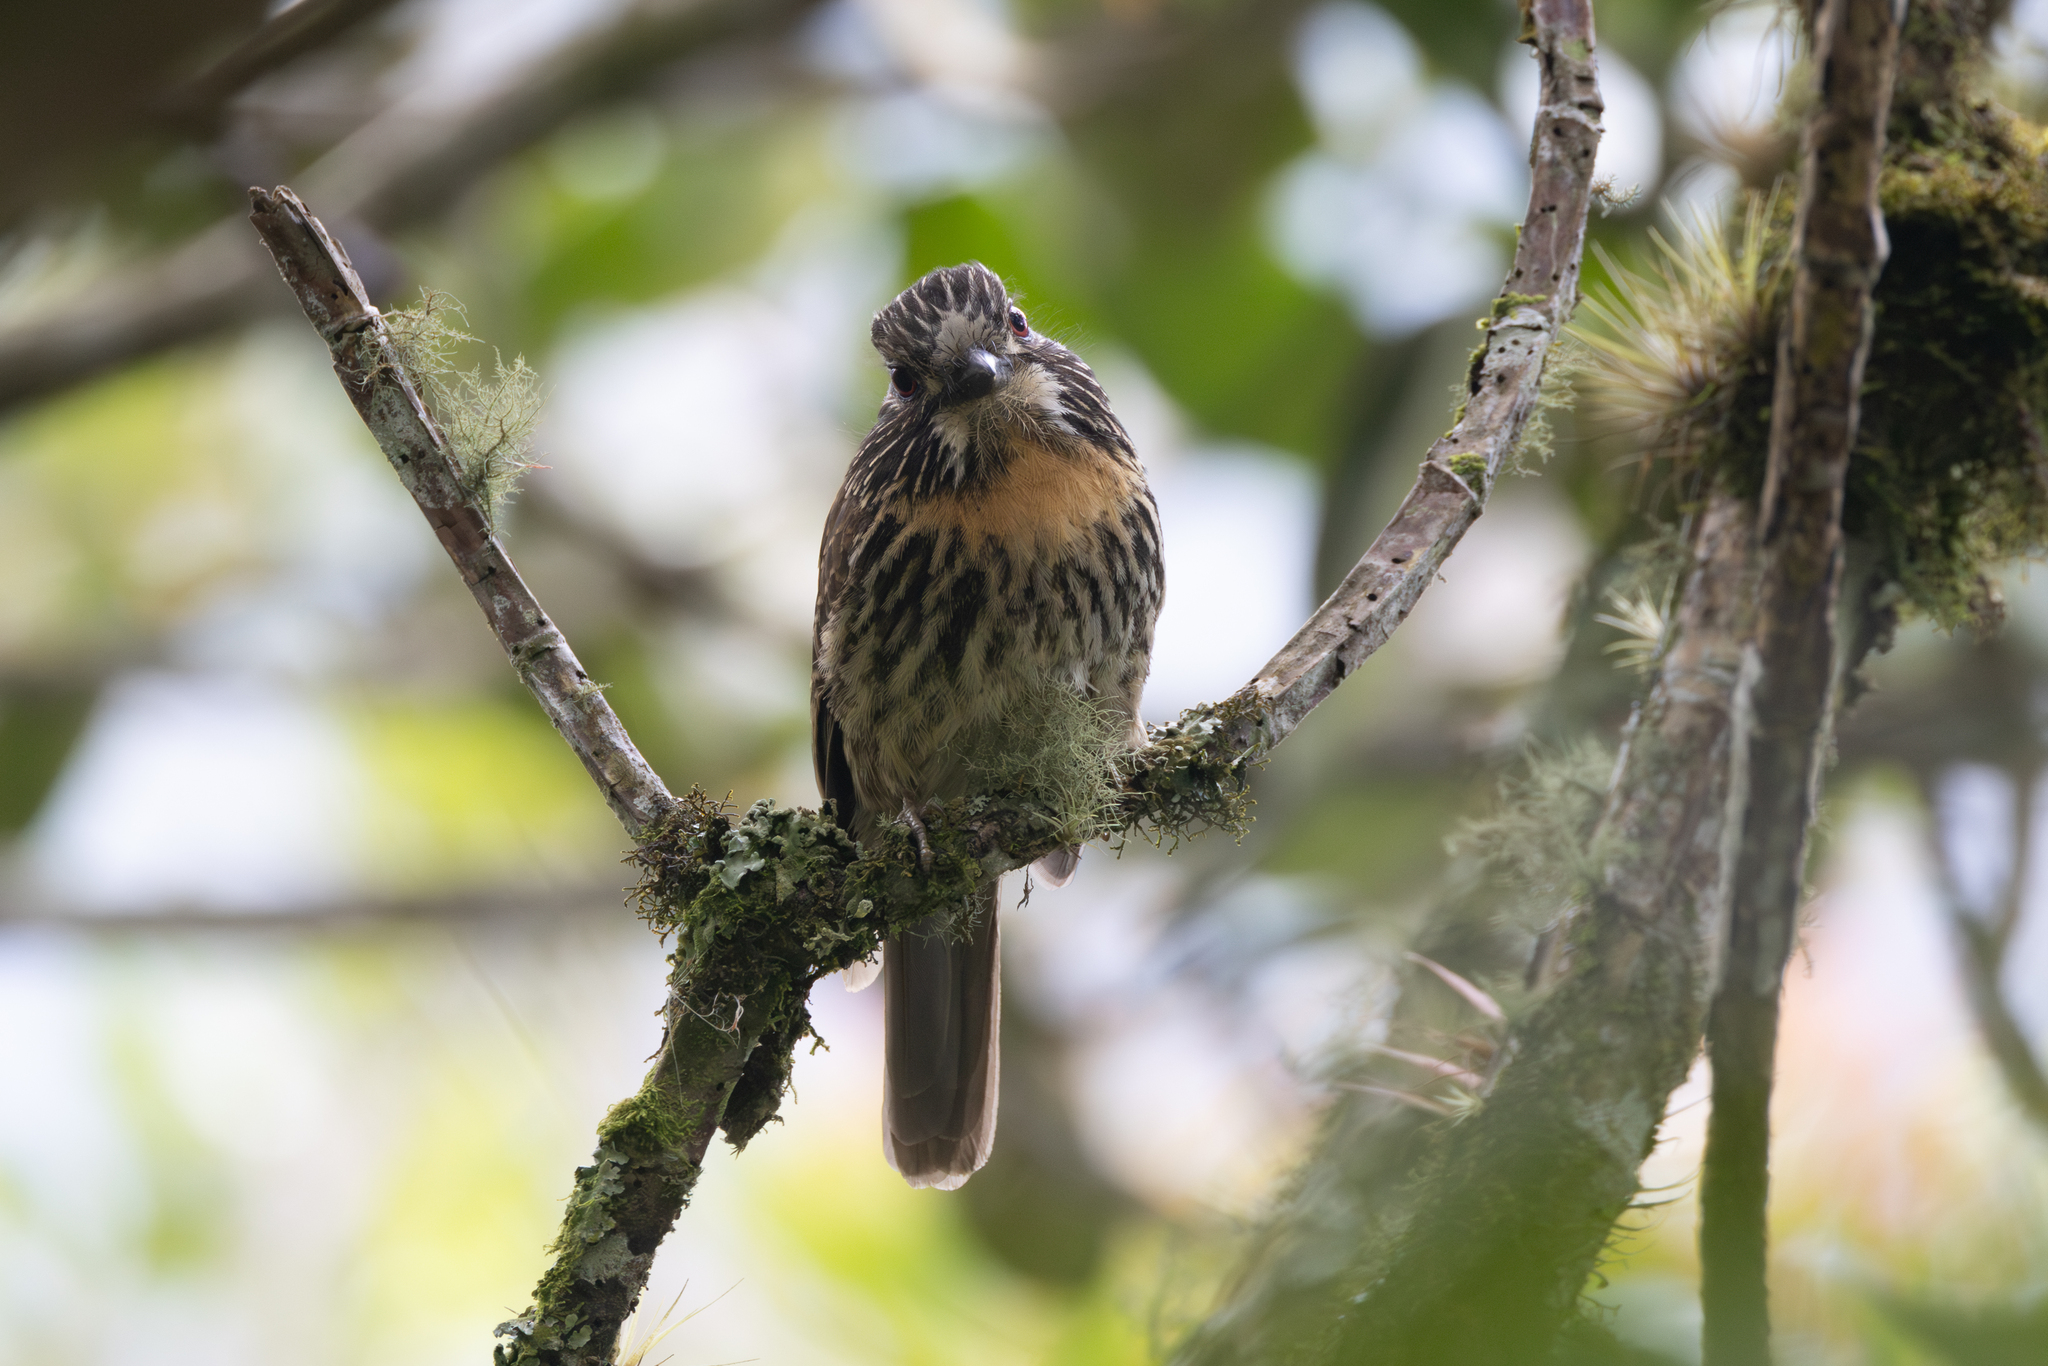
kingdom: Animalia
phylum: Chordata
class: Aves
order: Piciformes
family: Bucconidae
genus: Malacoptila
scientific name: Malacoptila fulvogularis
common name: Black-streaked puffbird
